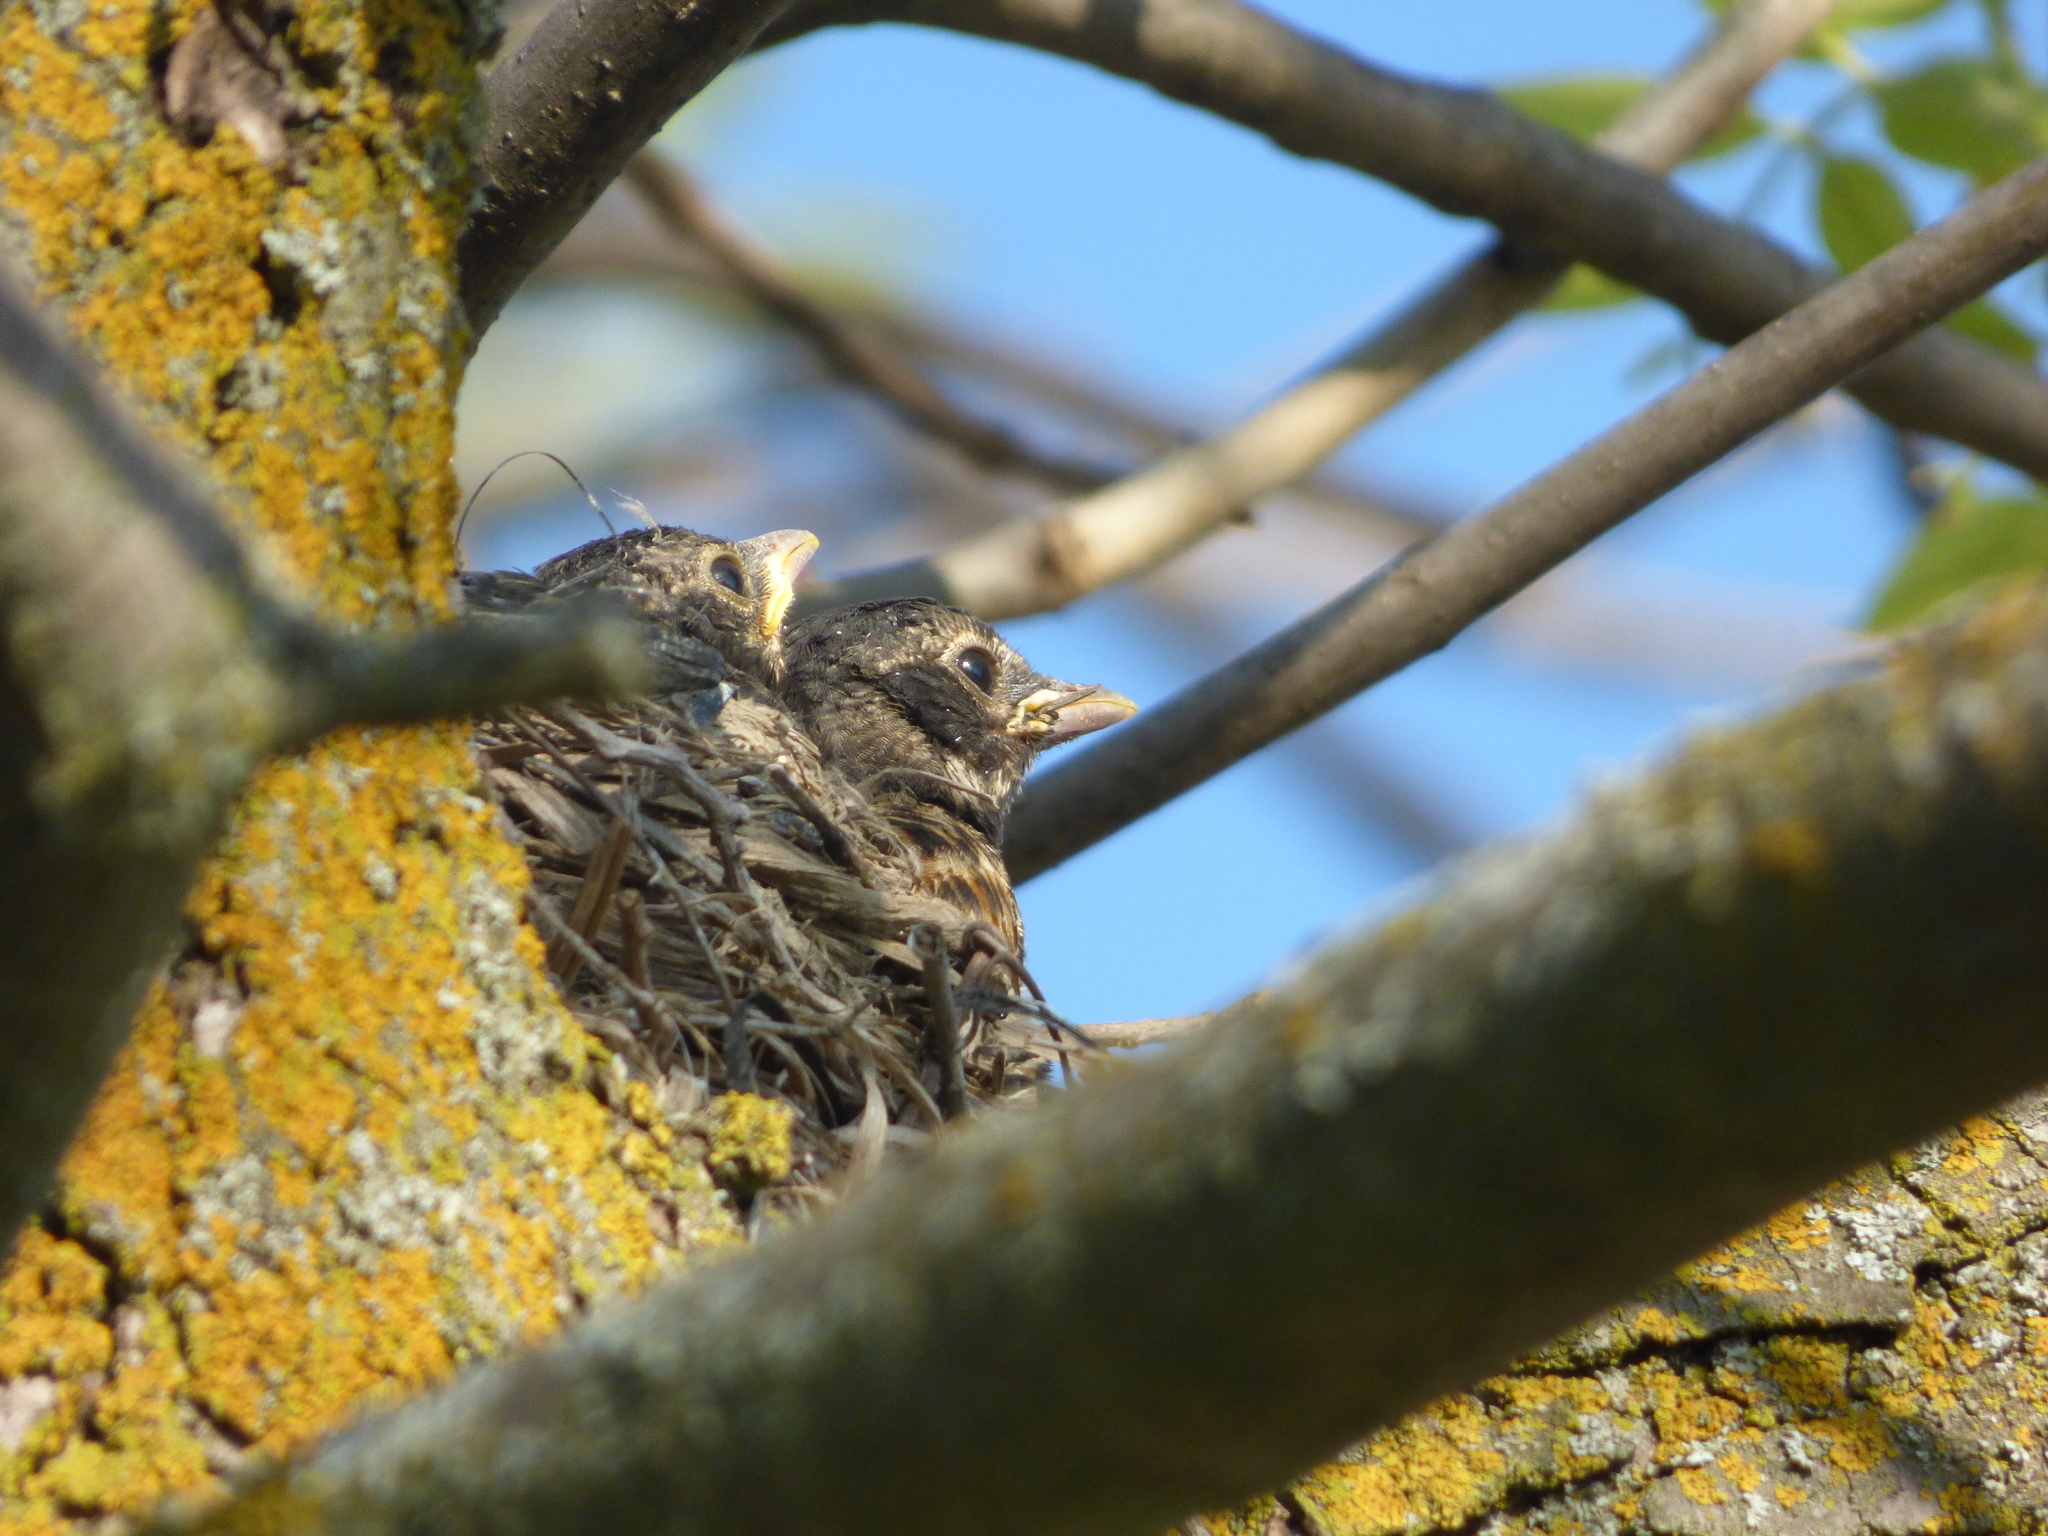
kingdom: Animalia
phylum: Chordata
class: Aves
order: Passeriformes
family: Turdidae
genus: Turdus
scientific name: Turdus migratorius
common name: American robin
